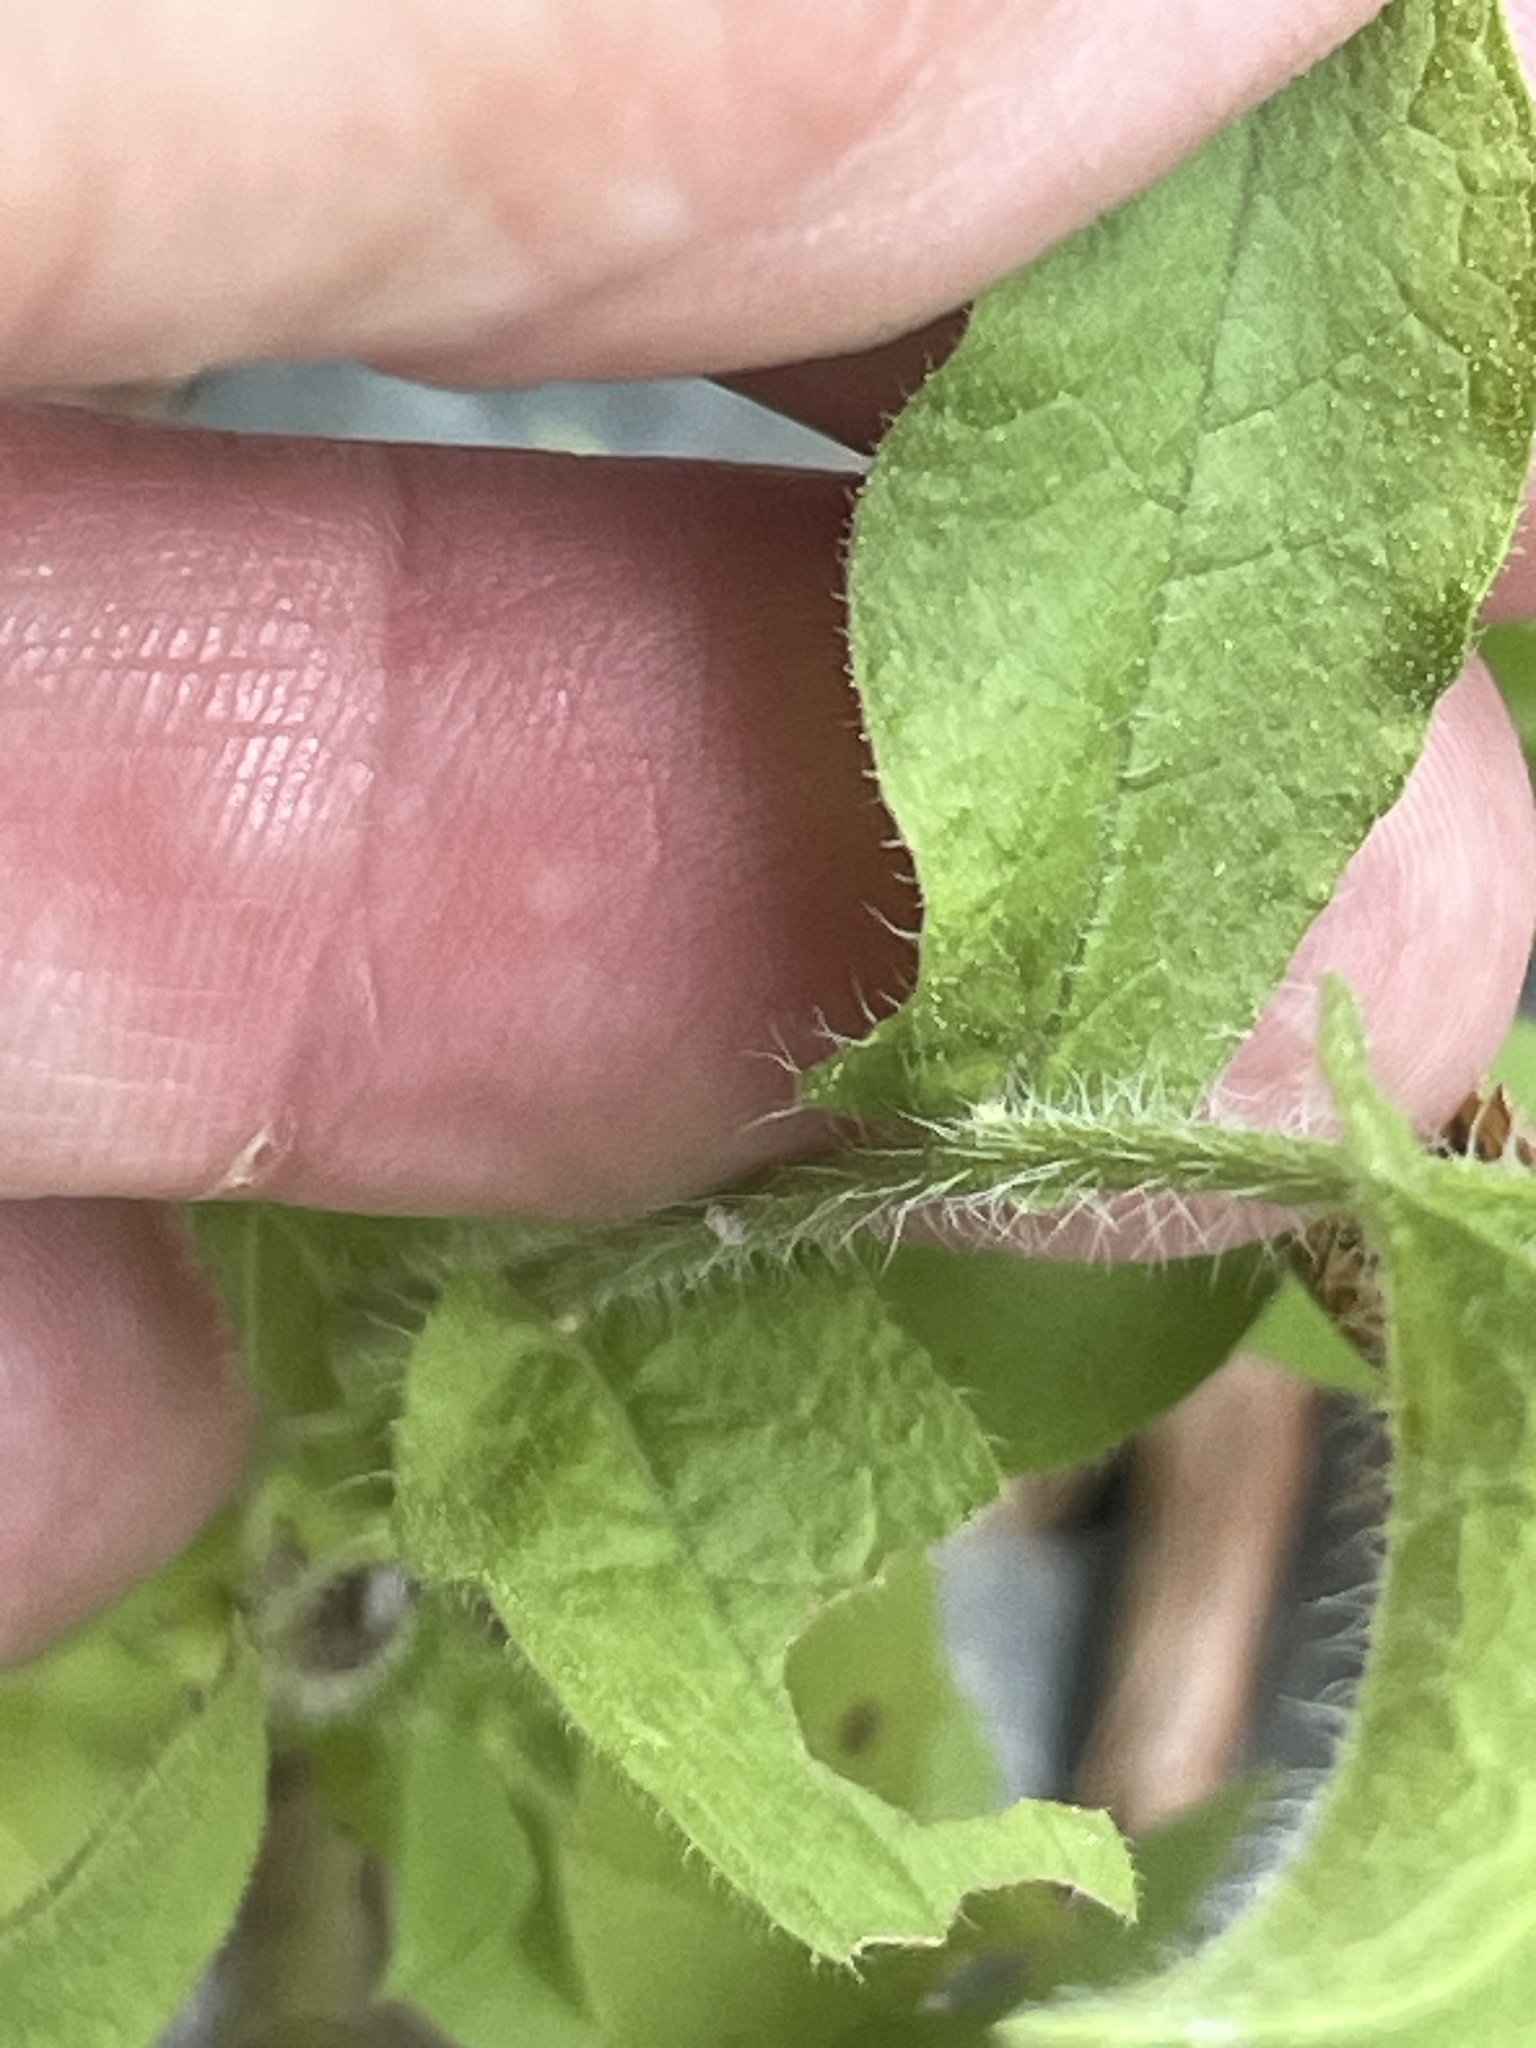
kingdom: Plantae
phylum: Tracheophyta
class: Magnoliopsida
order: Asterales
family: Asteraceae
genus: Heterotheca
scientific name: Heterotheca subaxillaris
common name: Camphorweed
